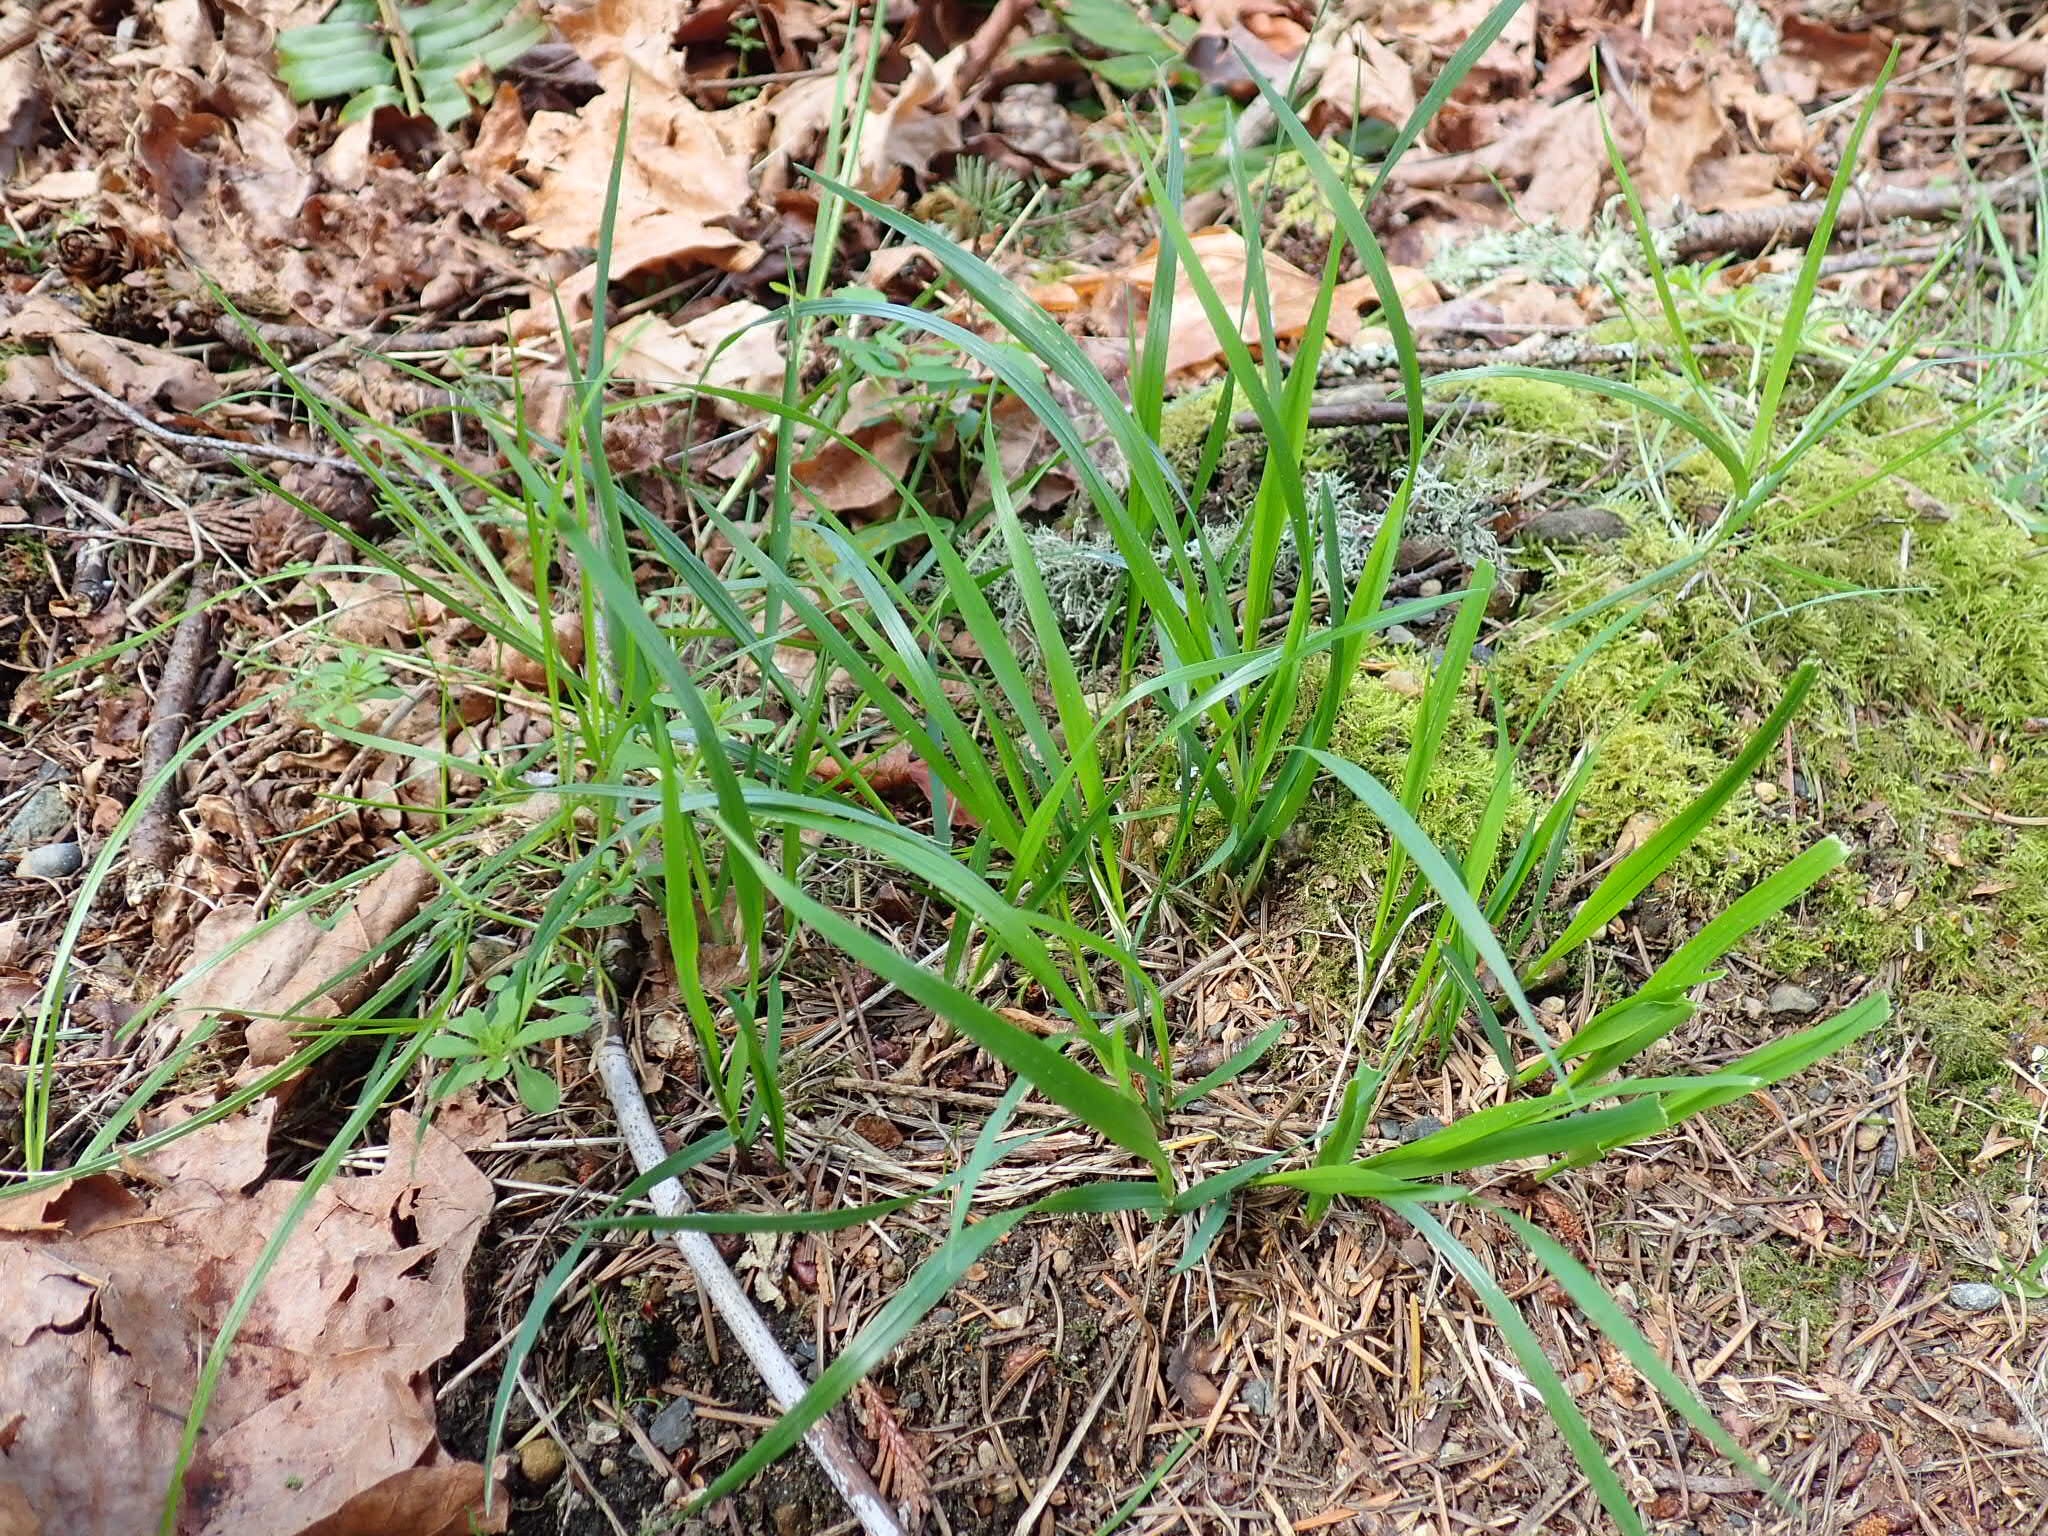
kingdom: Plantae
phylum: Tracheophyta
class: Liliopsida
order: Poales
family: Poaceae
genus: Melica
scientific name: Melica subulata
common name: Tapered oniongrass
